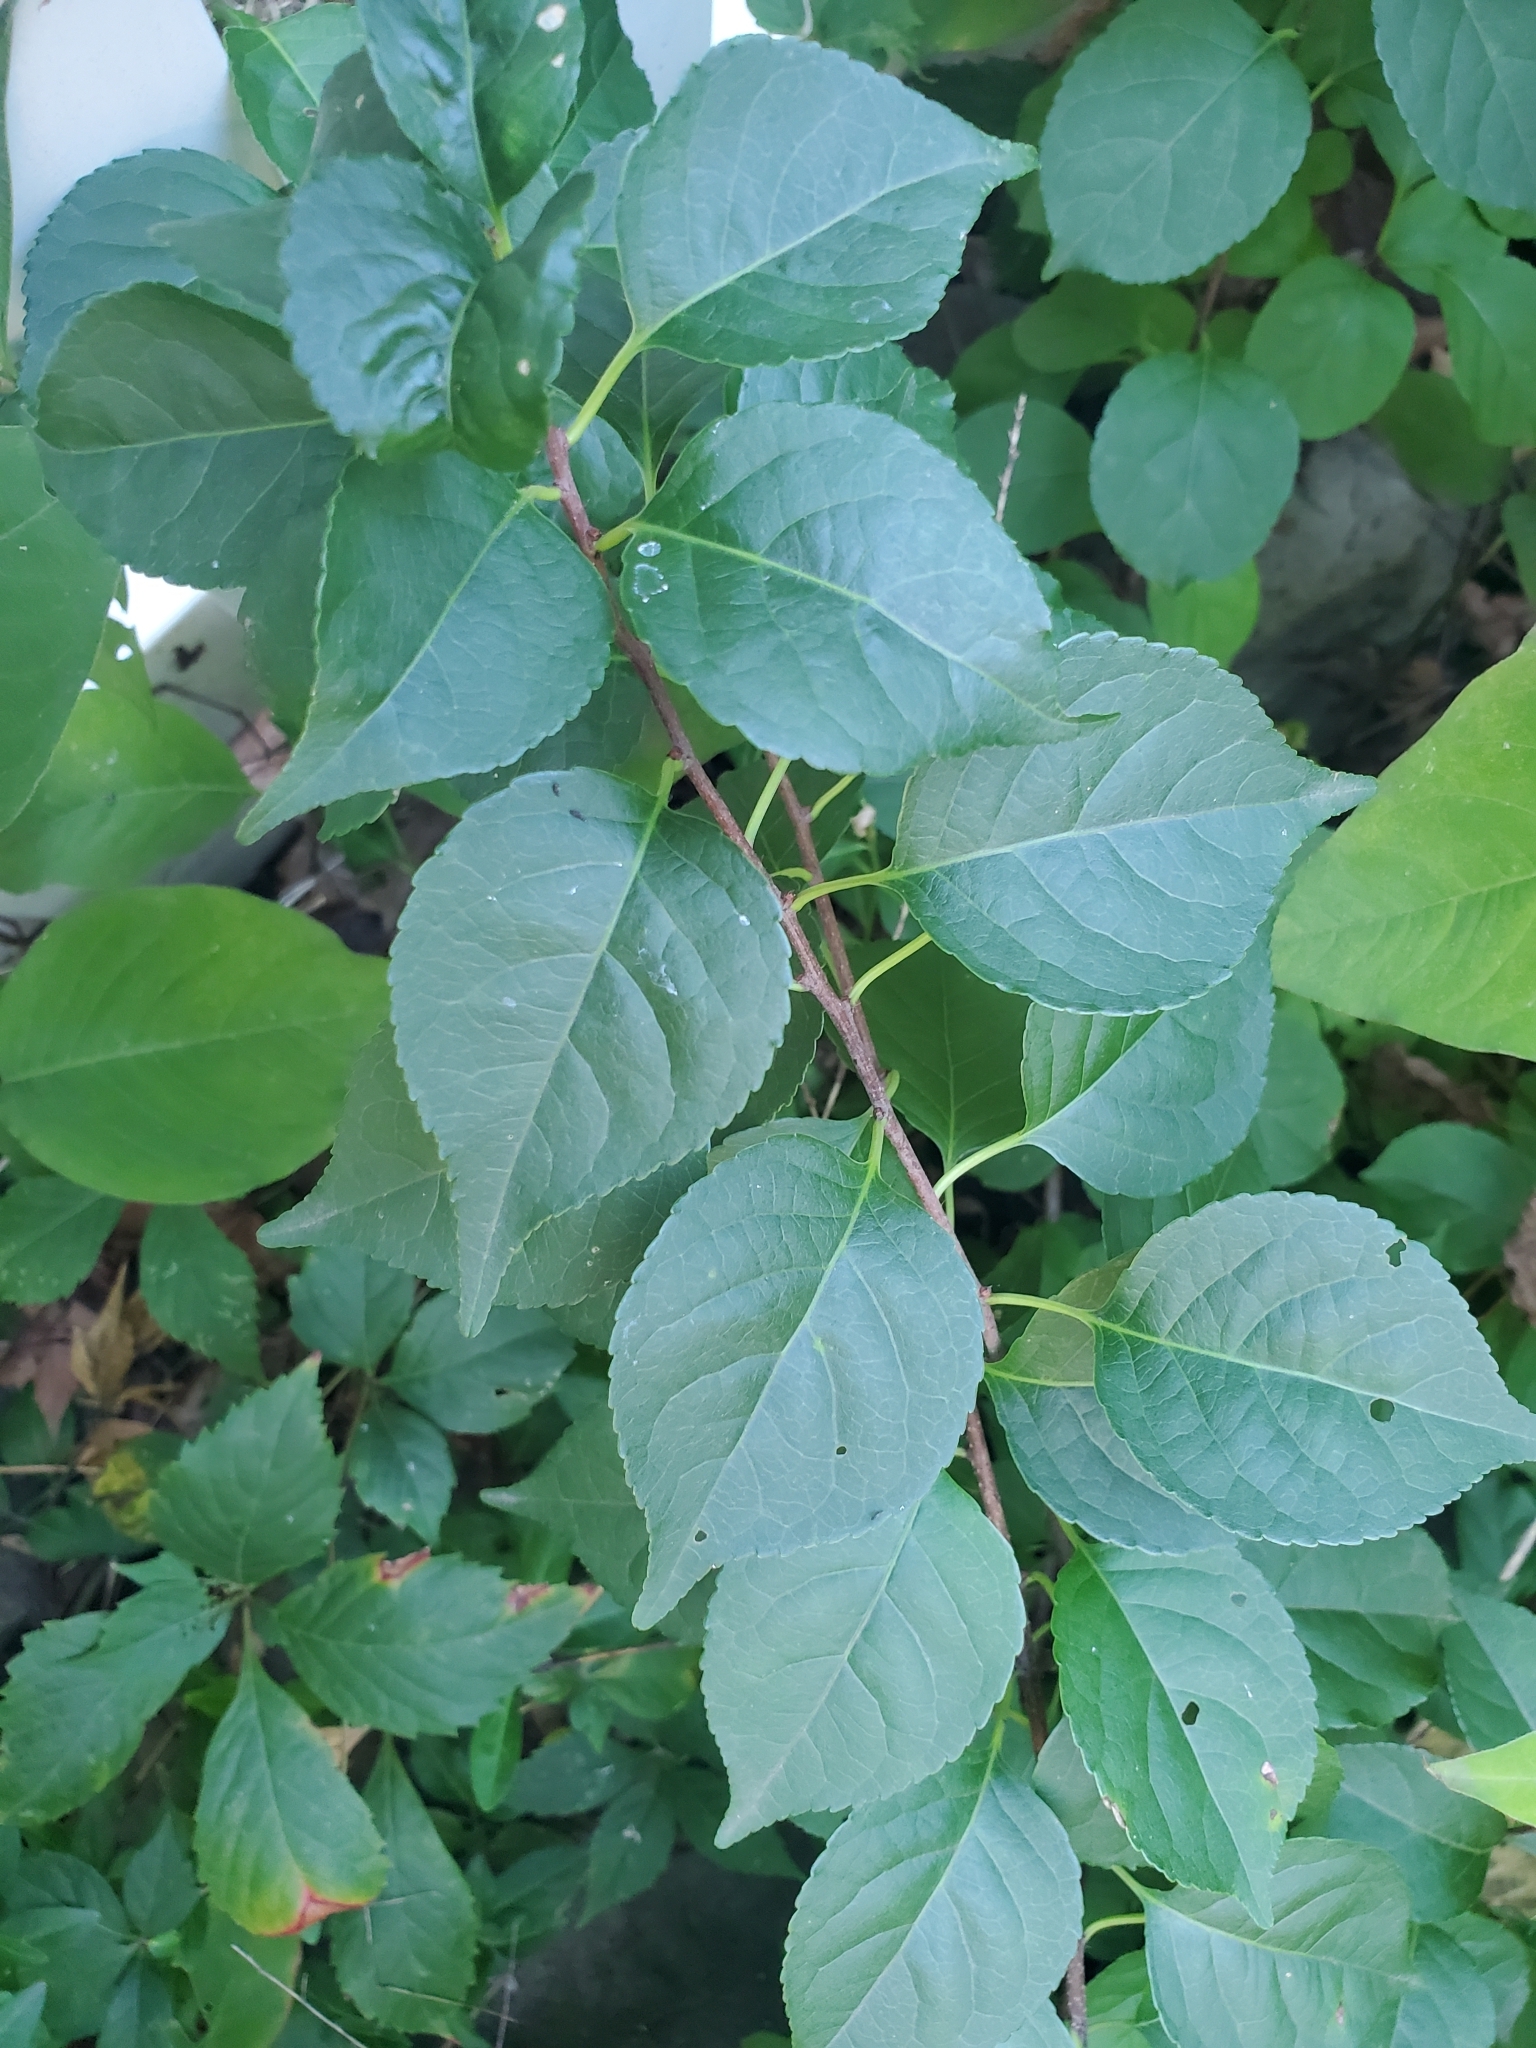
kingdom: Plantae
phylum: Tracheophyta
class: Magnoliopsida
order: Celastrales
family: Celastraceae
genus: Celastrus
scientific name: Celastrus orbiculatus
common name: Oriental bittersweet
